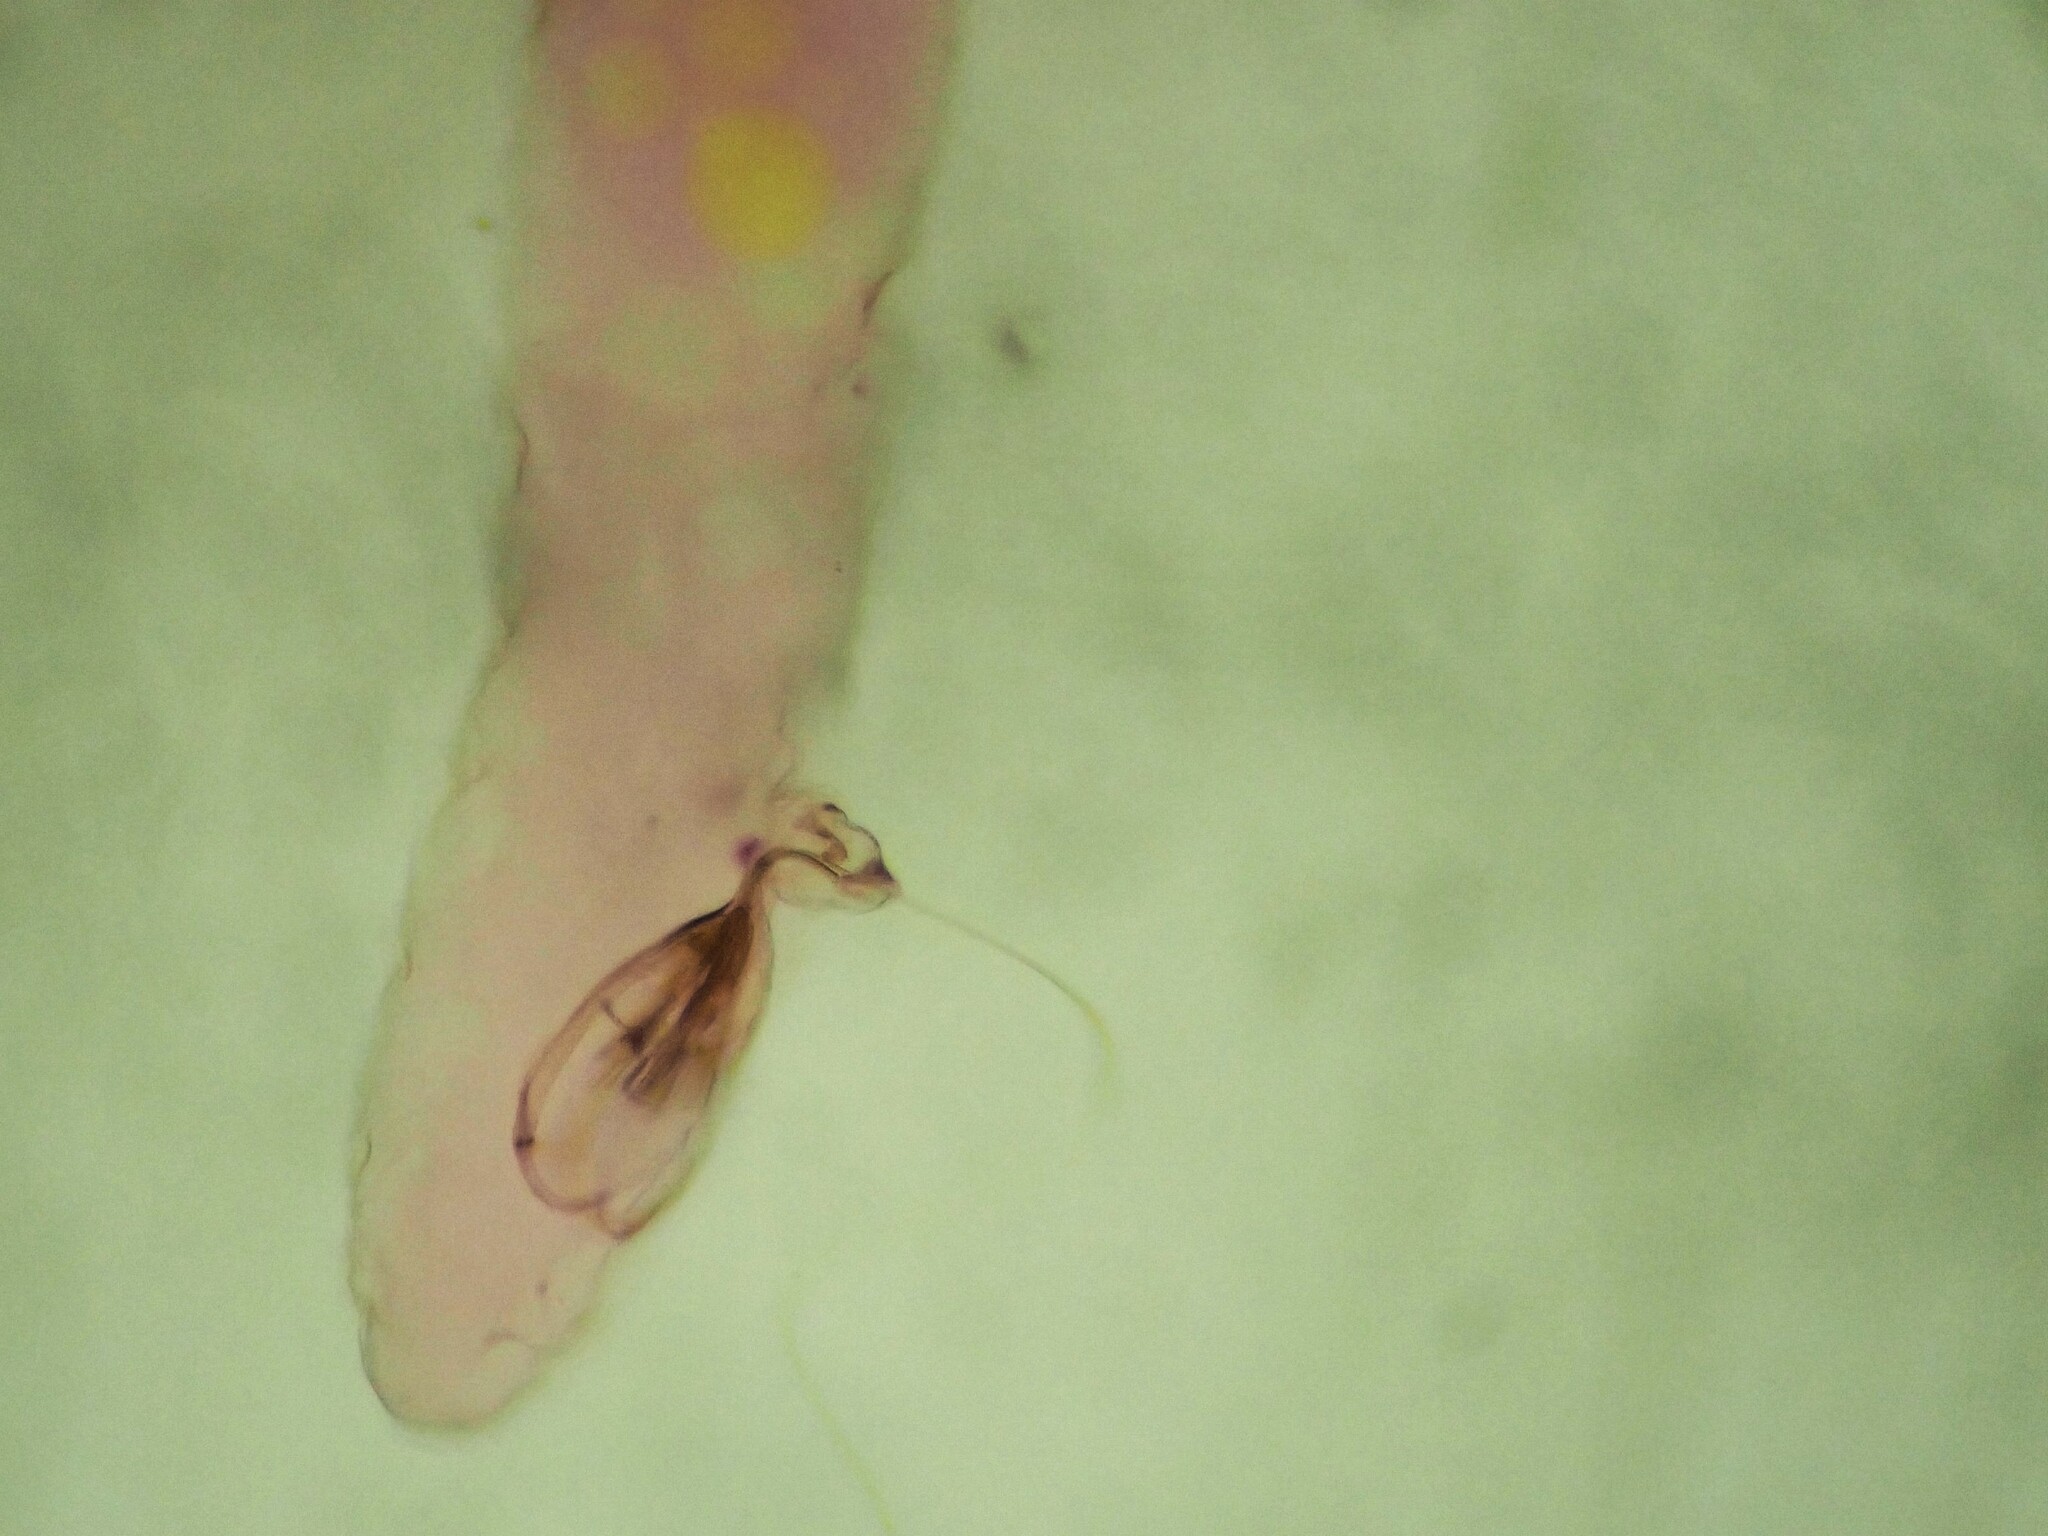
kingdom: Animalia
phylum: Arthropoda
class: Insecta
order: Hemiptera
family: Diaspididae
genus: Ischnaspis
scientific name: Ischnaspis longirostris
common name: Black thread scale
